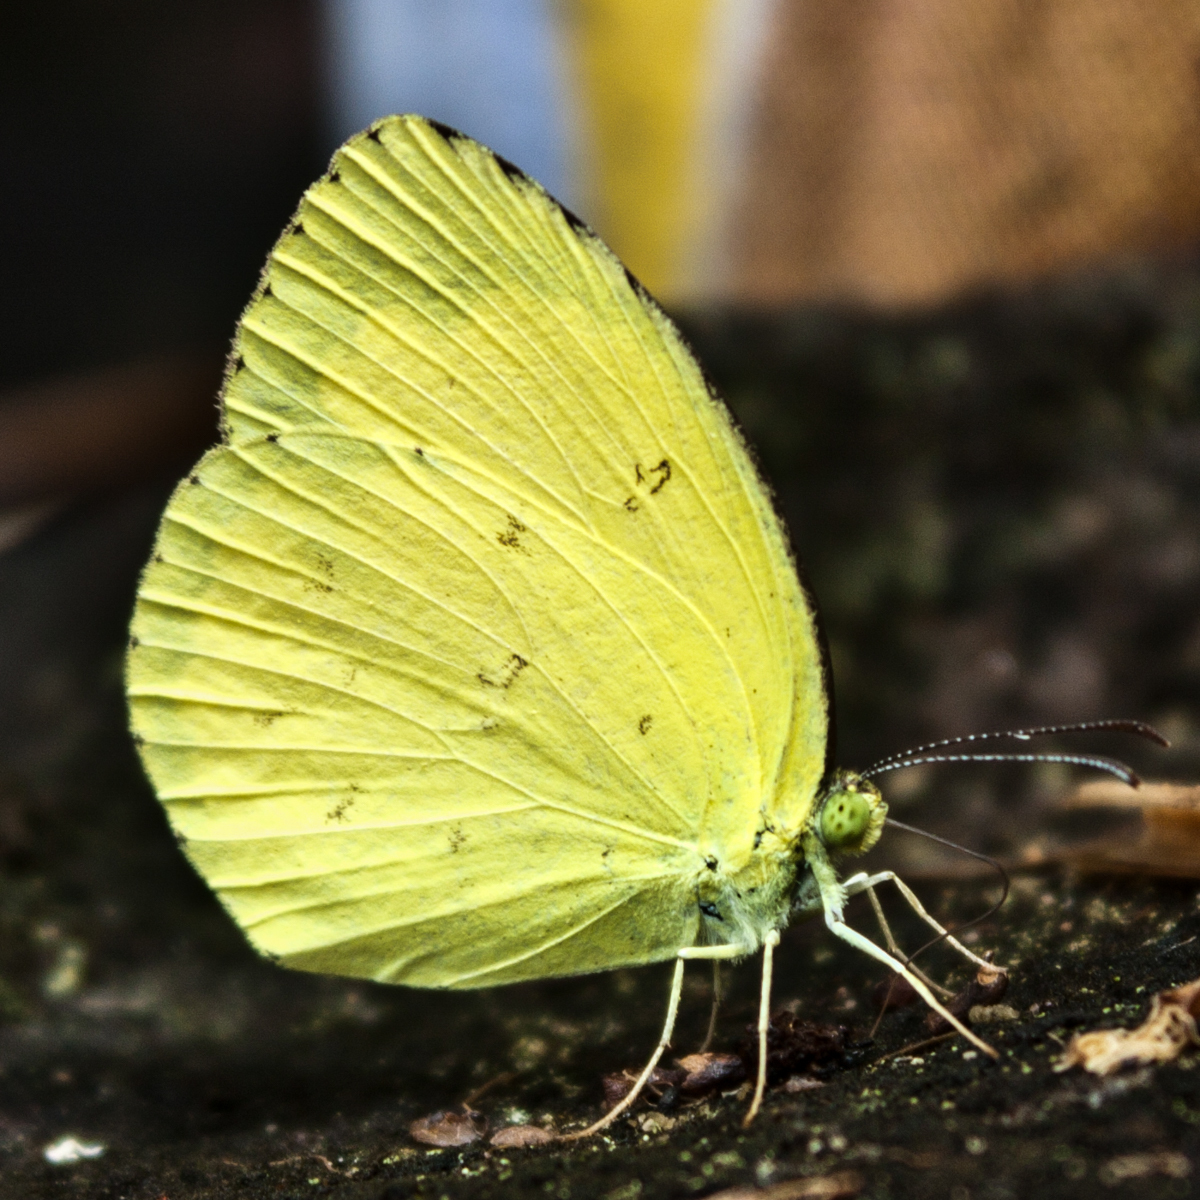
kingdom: Animalia
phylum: Arthropoda
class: Insecta
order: Lepidoptera
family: Pieridae
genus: Eurema
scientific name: Eurema hecabe
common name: Pale grass yellow
